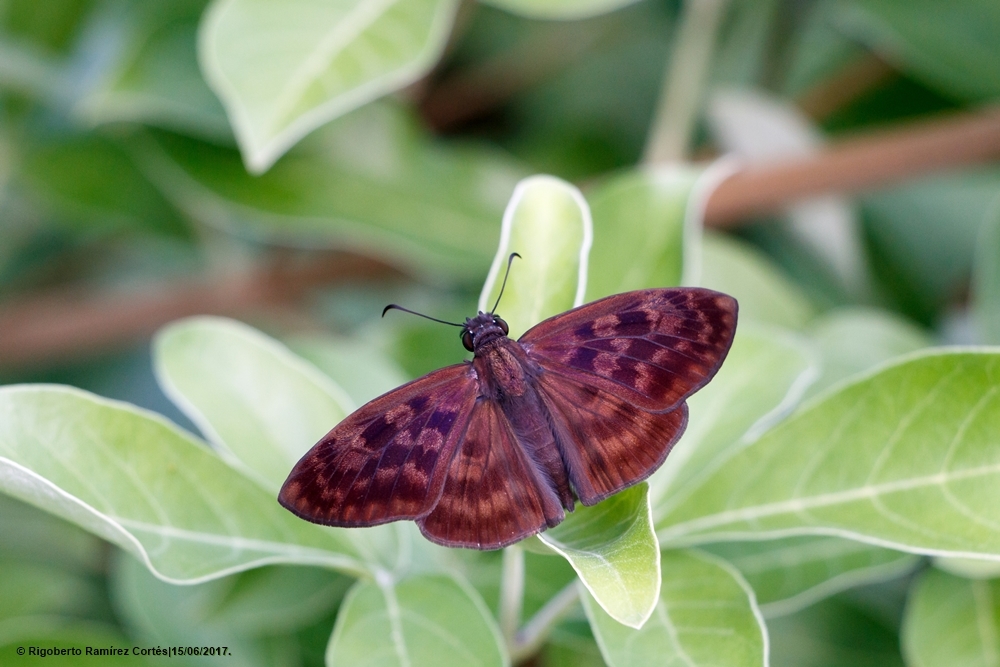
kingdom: Animalia
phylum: Arthropoda
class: Insecta
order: Lepidoptera
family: Hesperiidae
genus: Anastrus
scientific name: Anastrus Echelatus sempiternus
